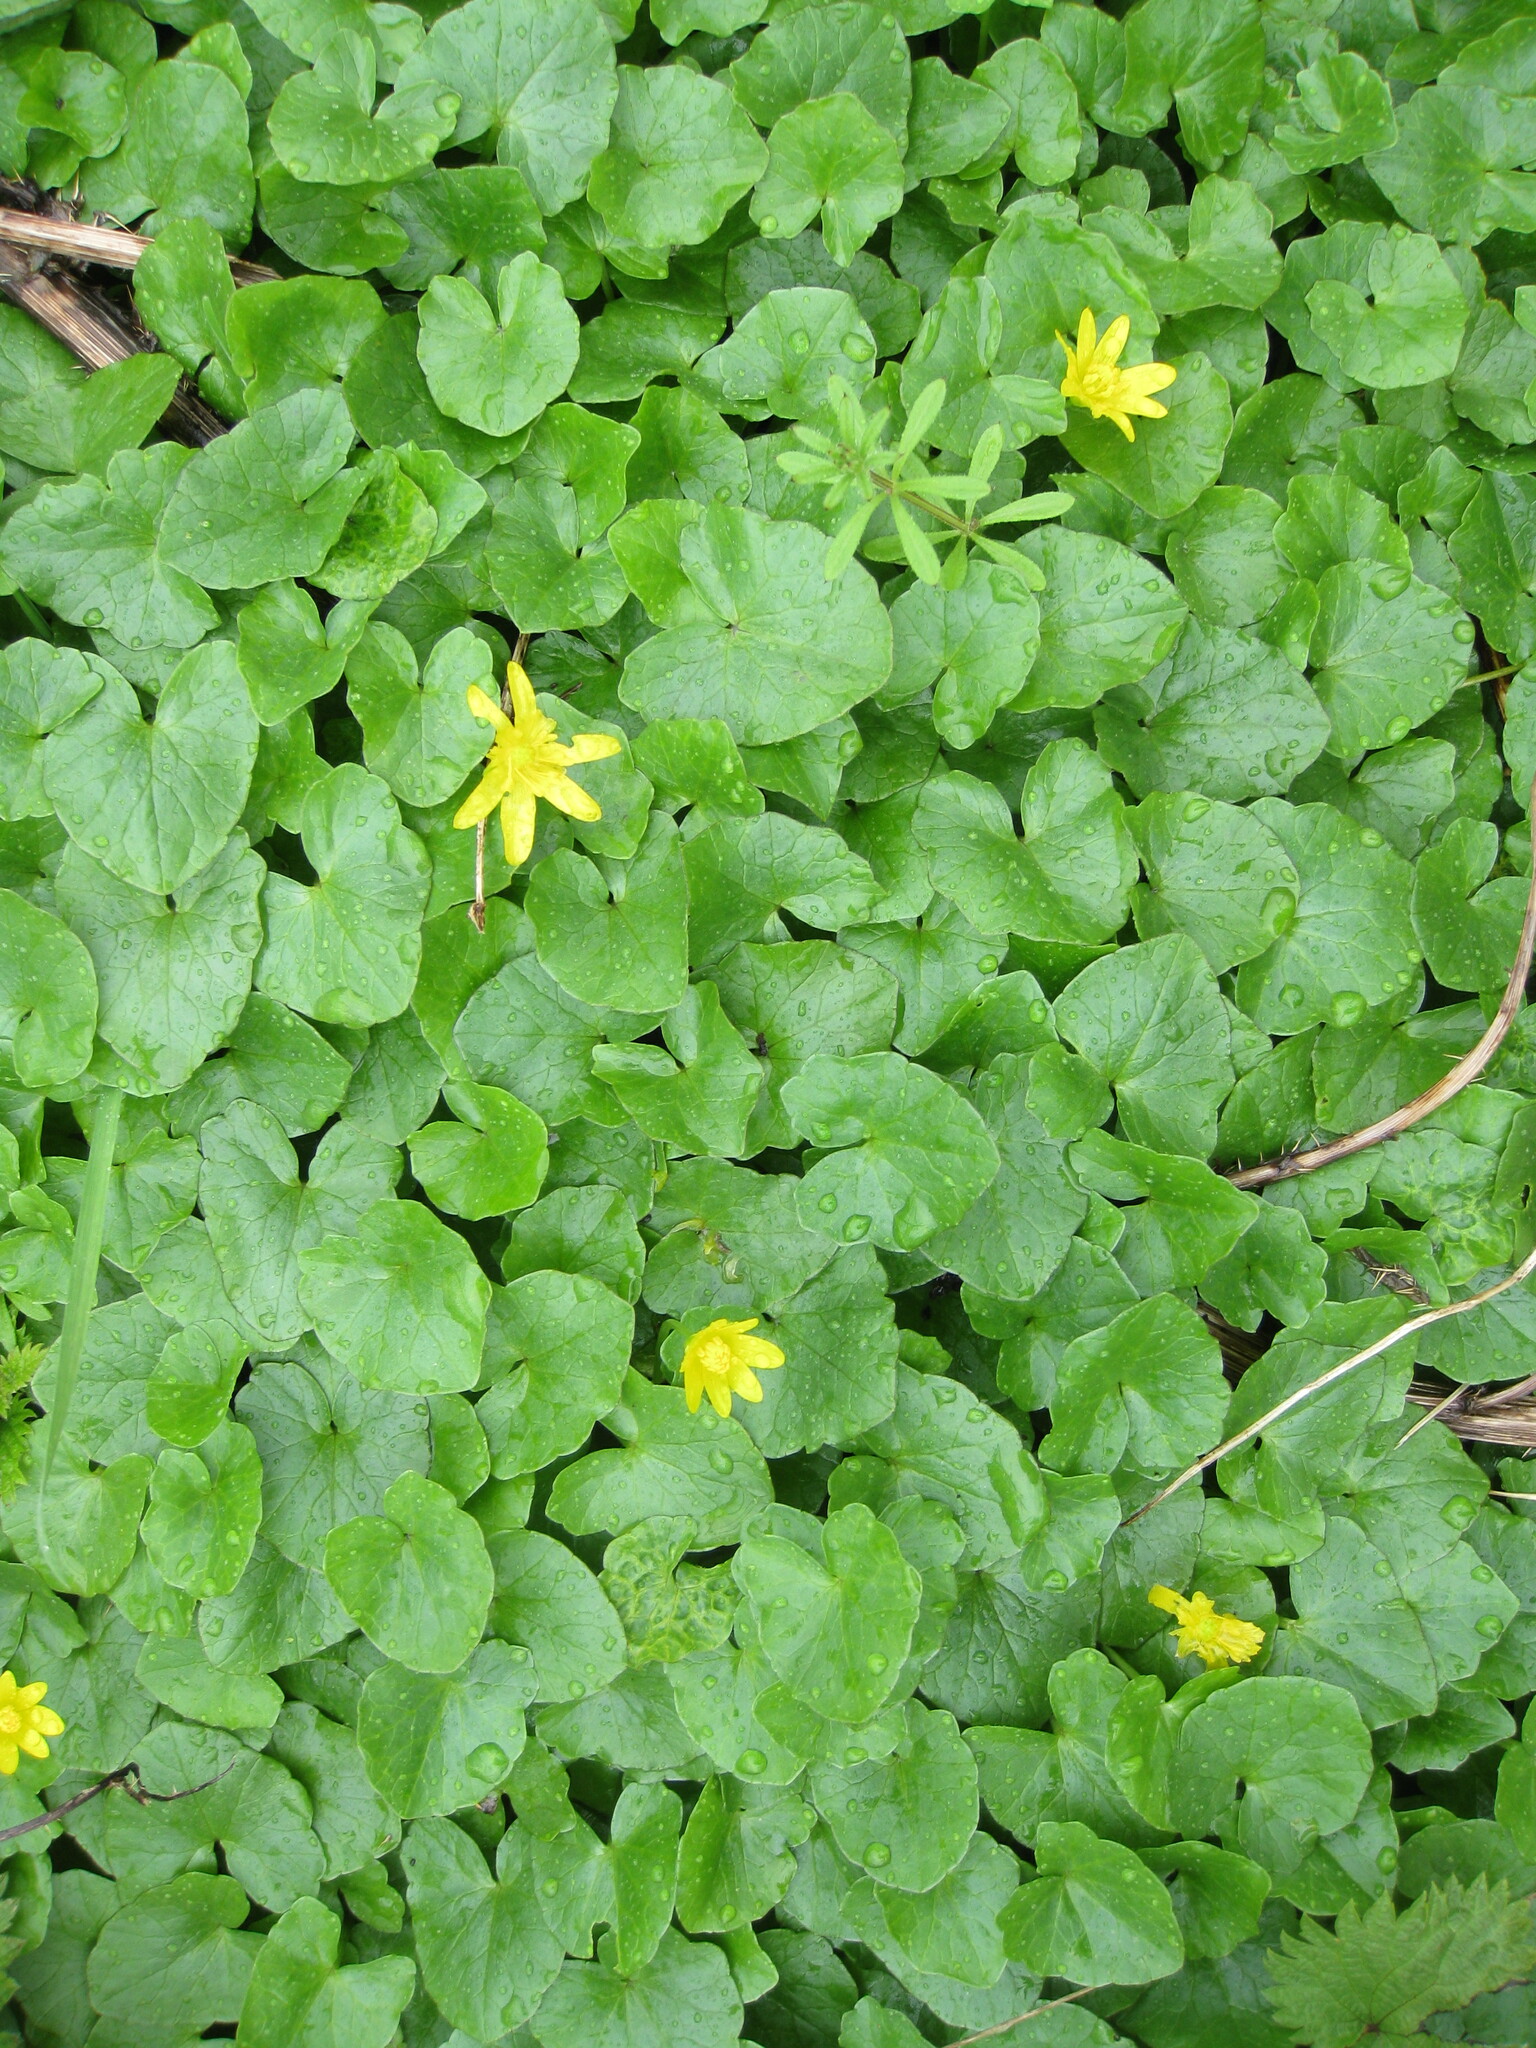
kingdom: Plantae
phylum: Tracheophyta
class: Magnoliopsida
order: Ranunculales
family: Ranunculaceae
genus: Ficaria
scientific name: Ficaria verna
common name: Lesser celandine
